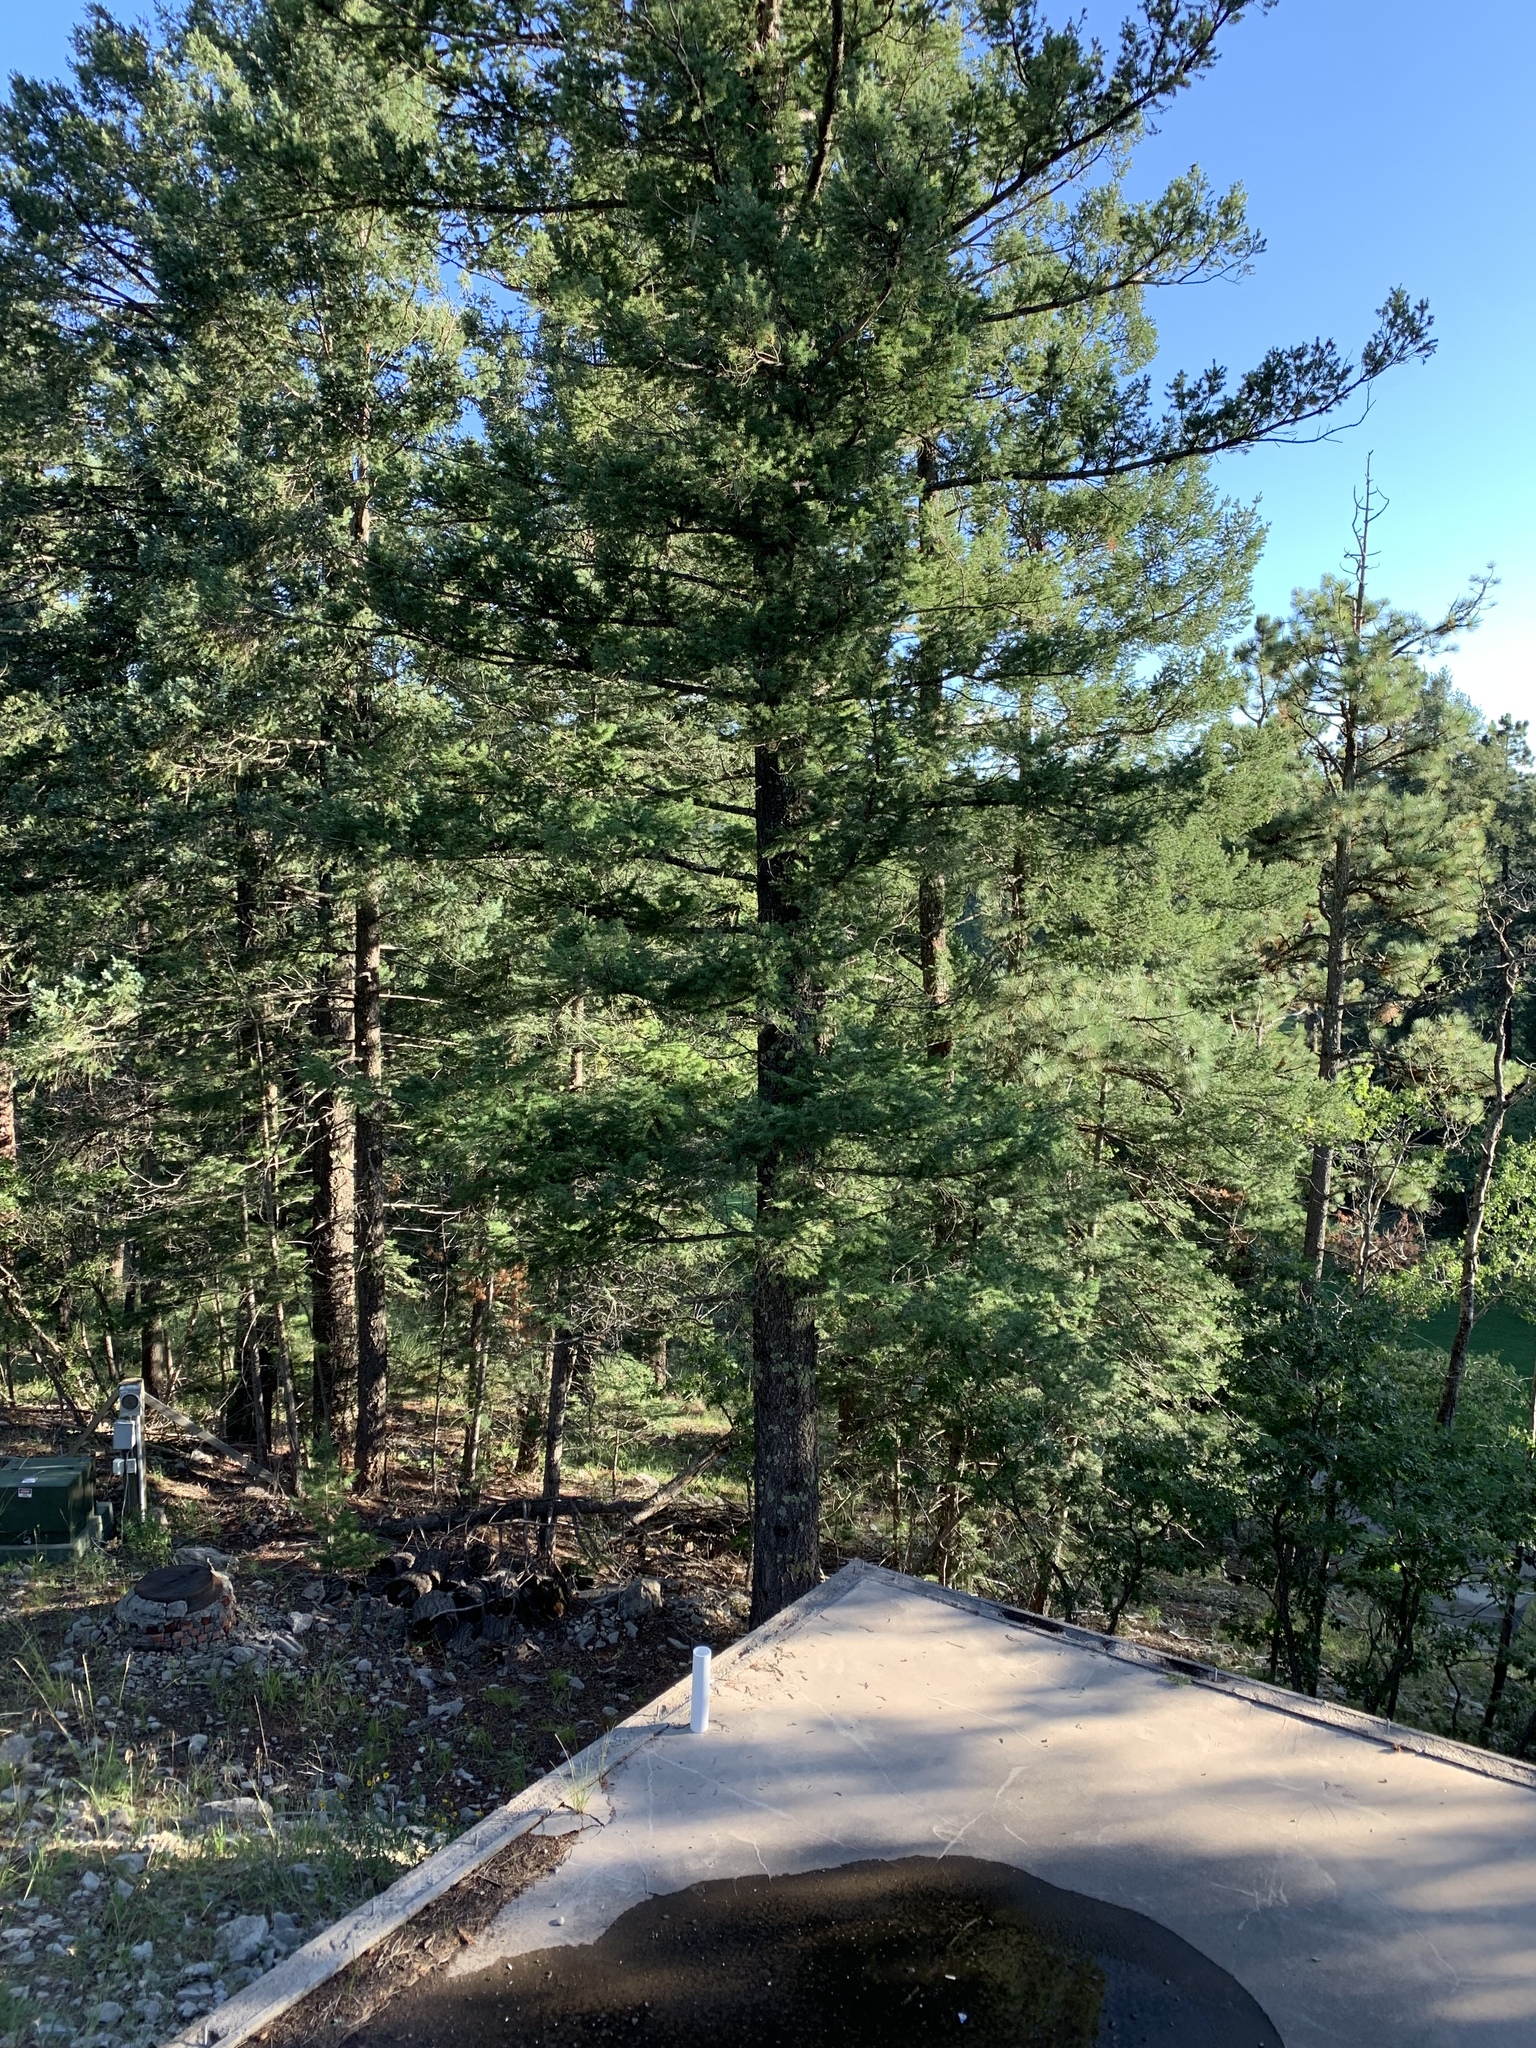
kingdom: Plantae
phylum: Tracheophyta
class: Pinopsida
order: Pinales
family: Pinaceae
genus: Pseudotsuga
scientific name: Pseudotsuga menziesii
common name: Douglas fir
